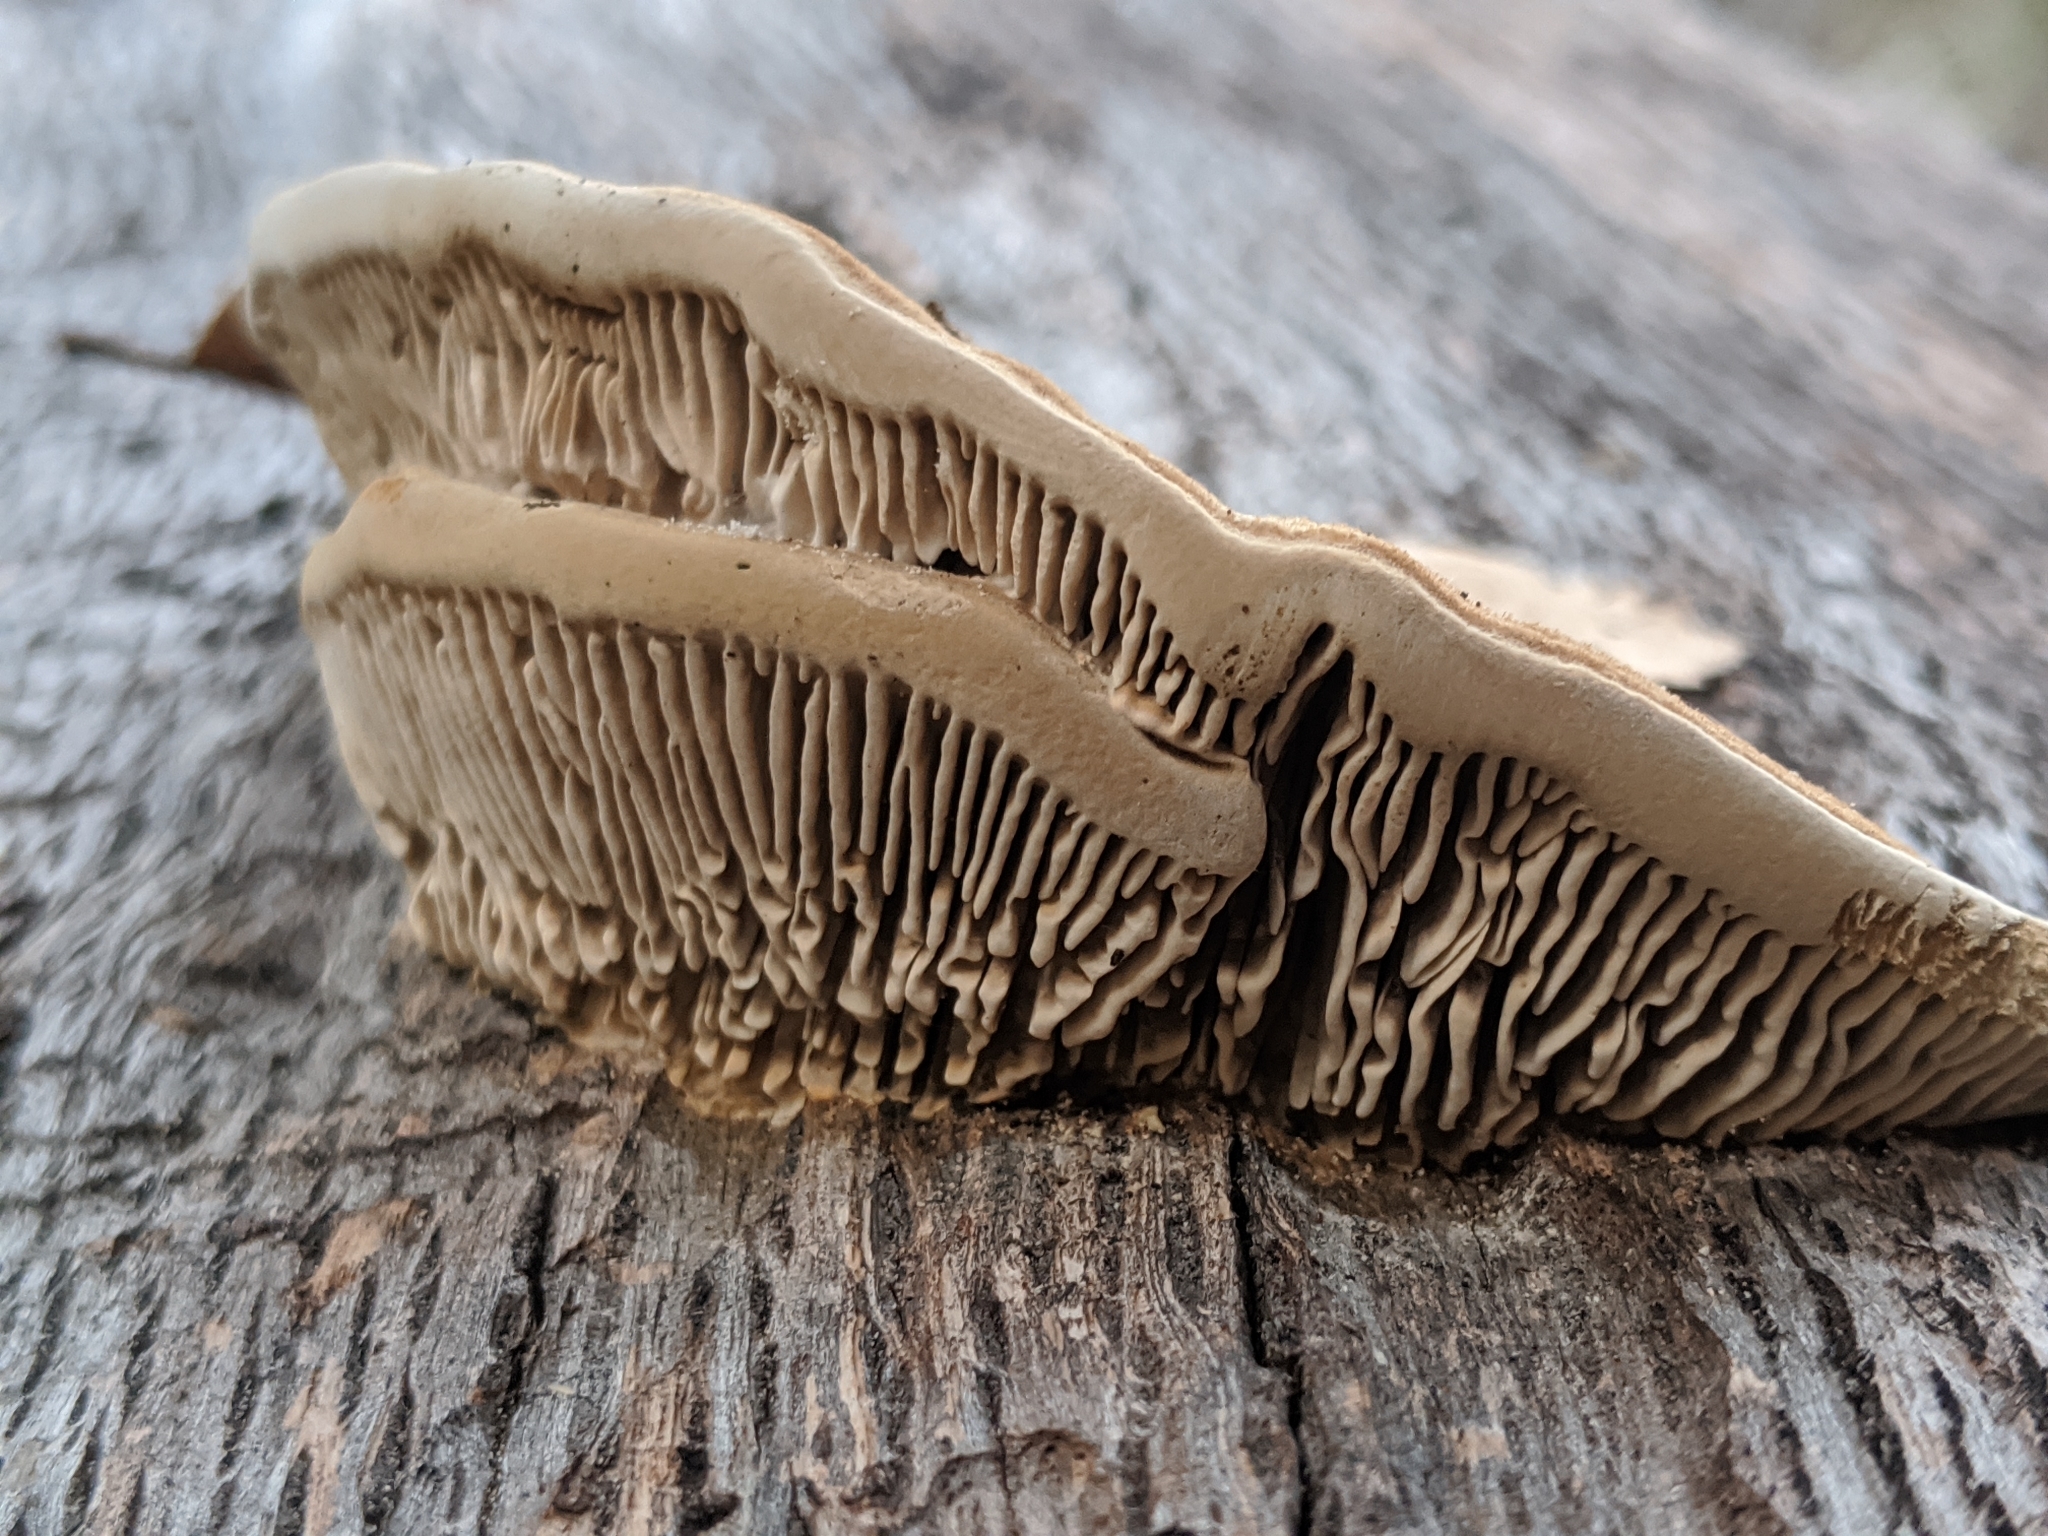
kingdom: Fungi
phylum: Basidiomycota
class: Agaricomycetes
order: Polyporales
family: Polyporaceae
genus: Lenzites
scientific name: Lenzites betulinus
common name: Birch mazegill
